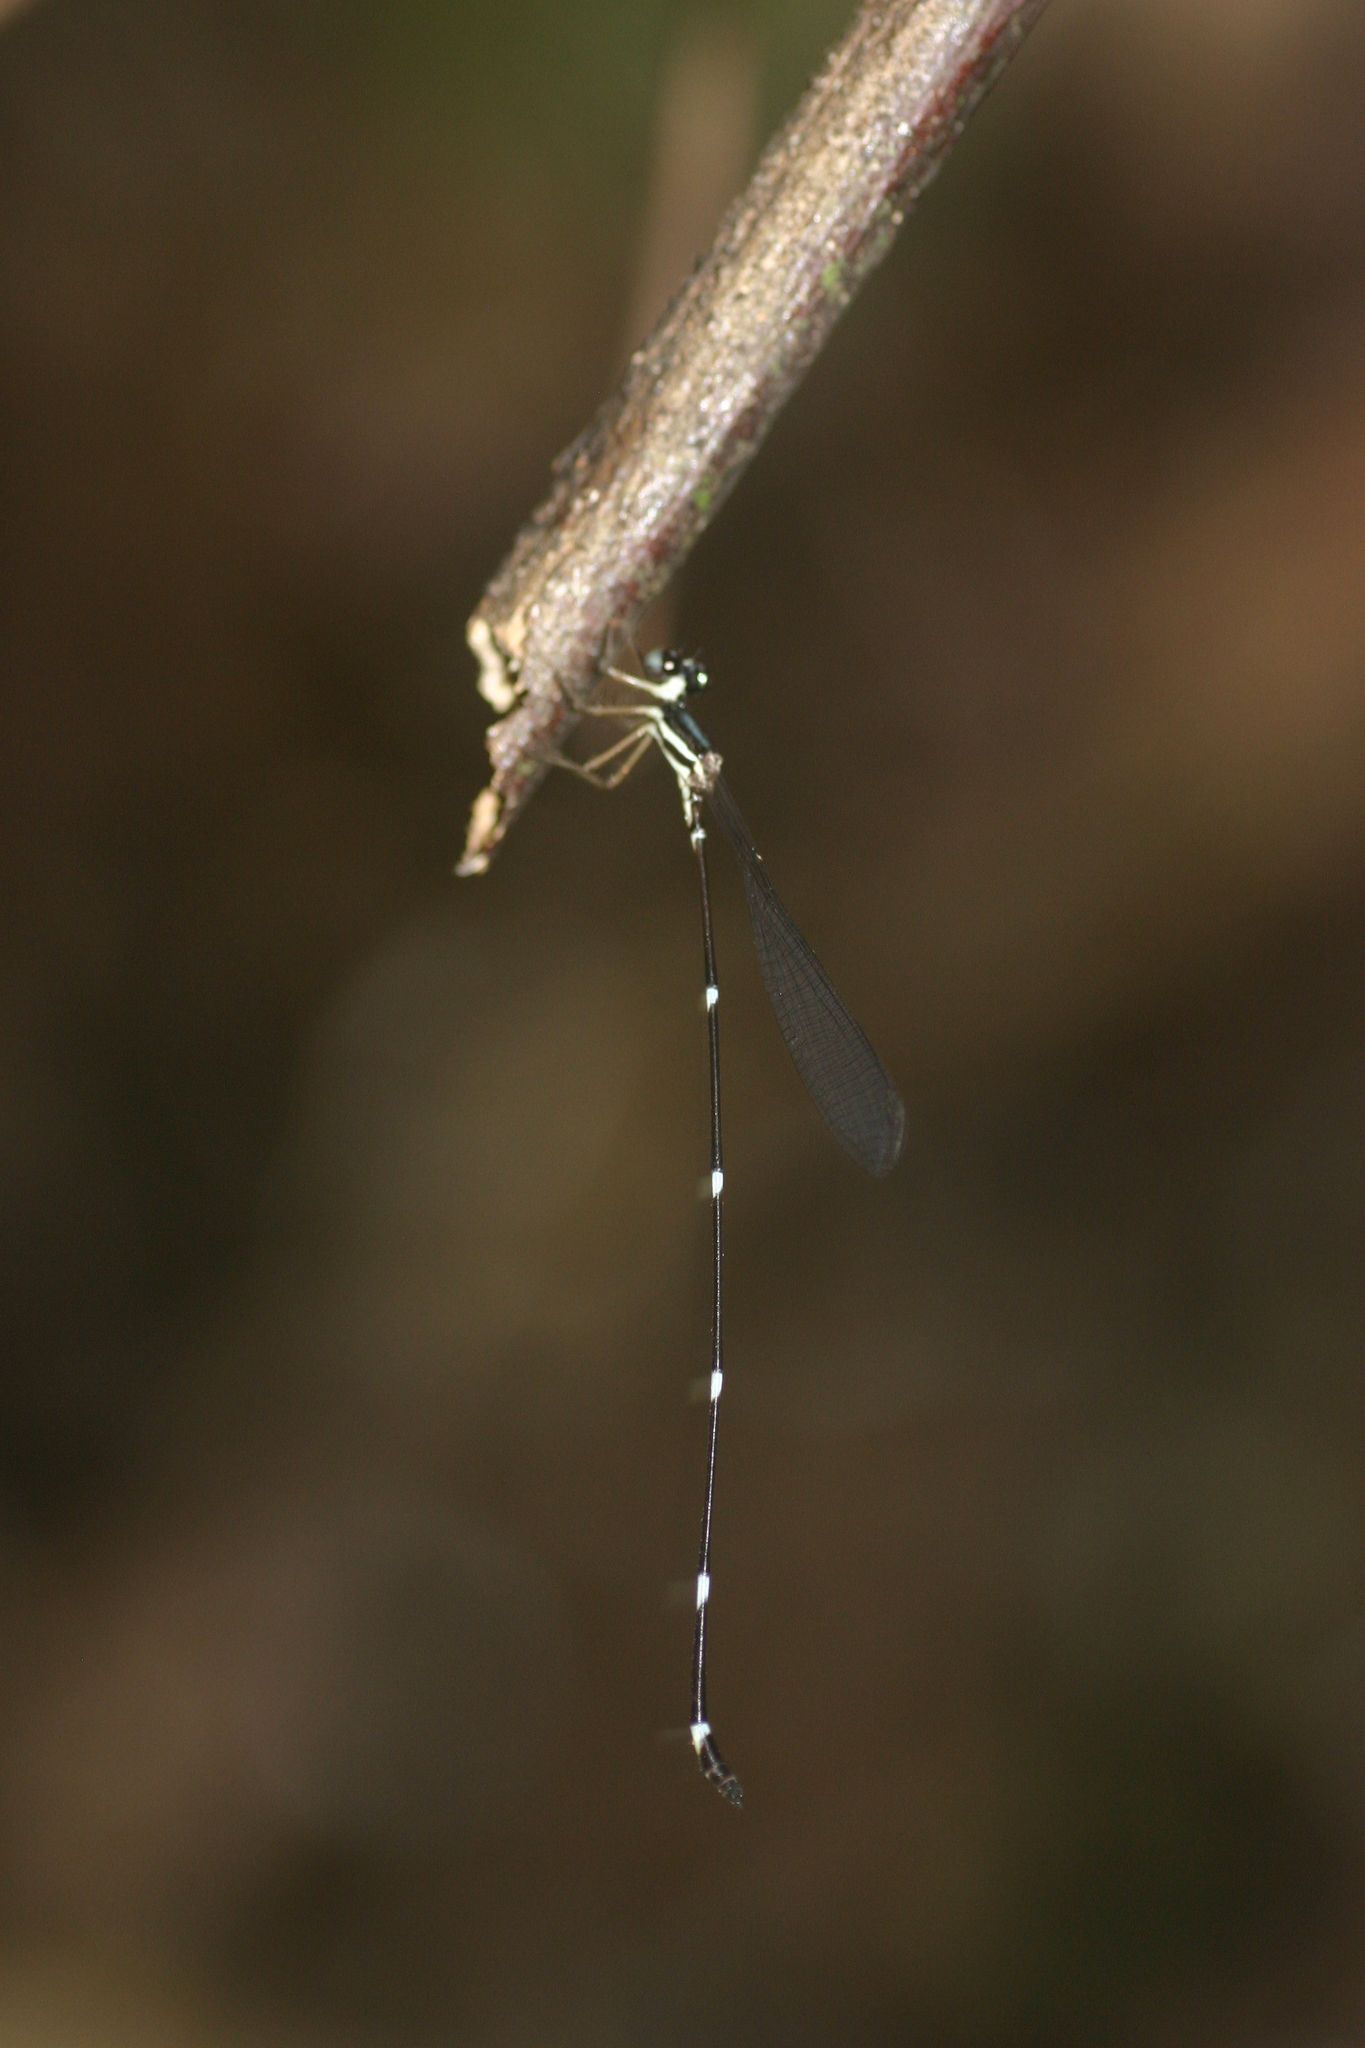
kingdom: Animalia
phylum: Arthropoda
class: Insecta
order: Odonata
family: Platystictidae
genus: Protosticta
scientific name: Protosticta gravelyi
